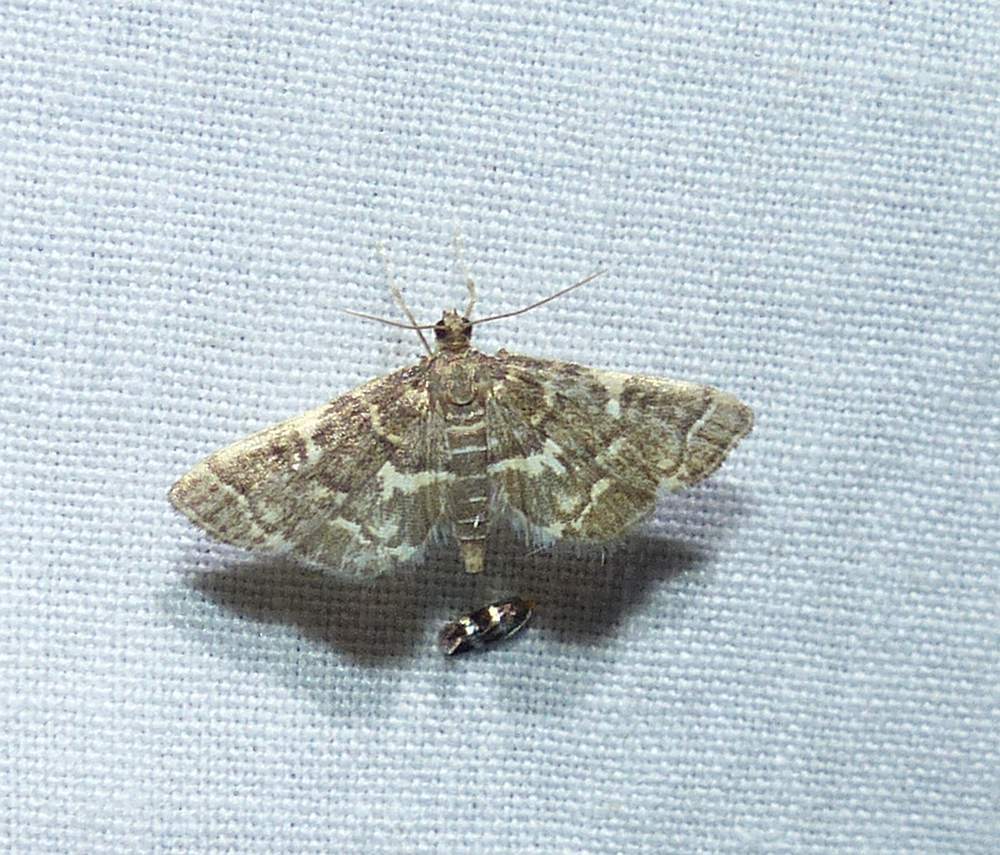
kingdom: Animalia
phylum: Arthropoda
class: Insecta
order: Lepidoptera
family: Crambidae
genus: Anageshna
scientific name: Anageshna primordialis
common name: Yellow-spotted webworm moth
